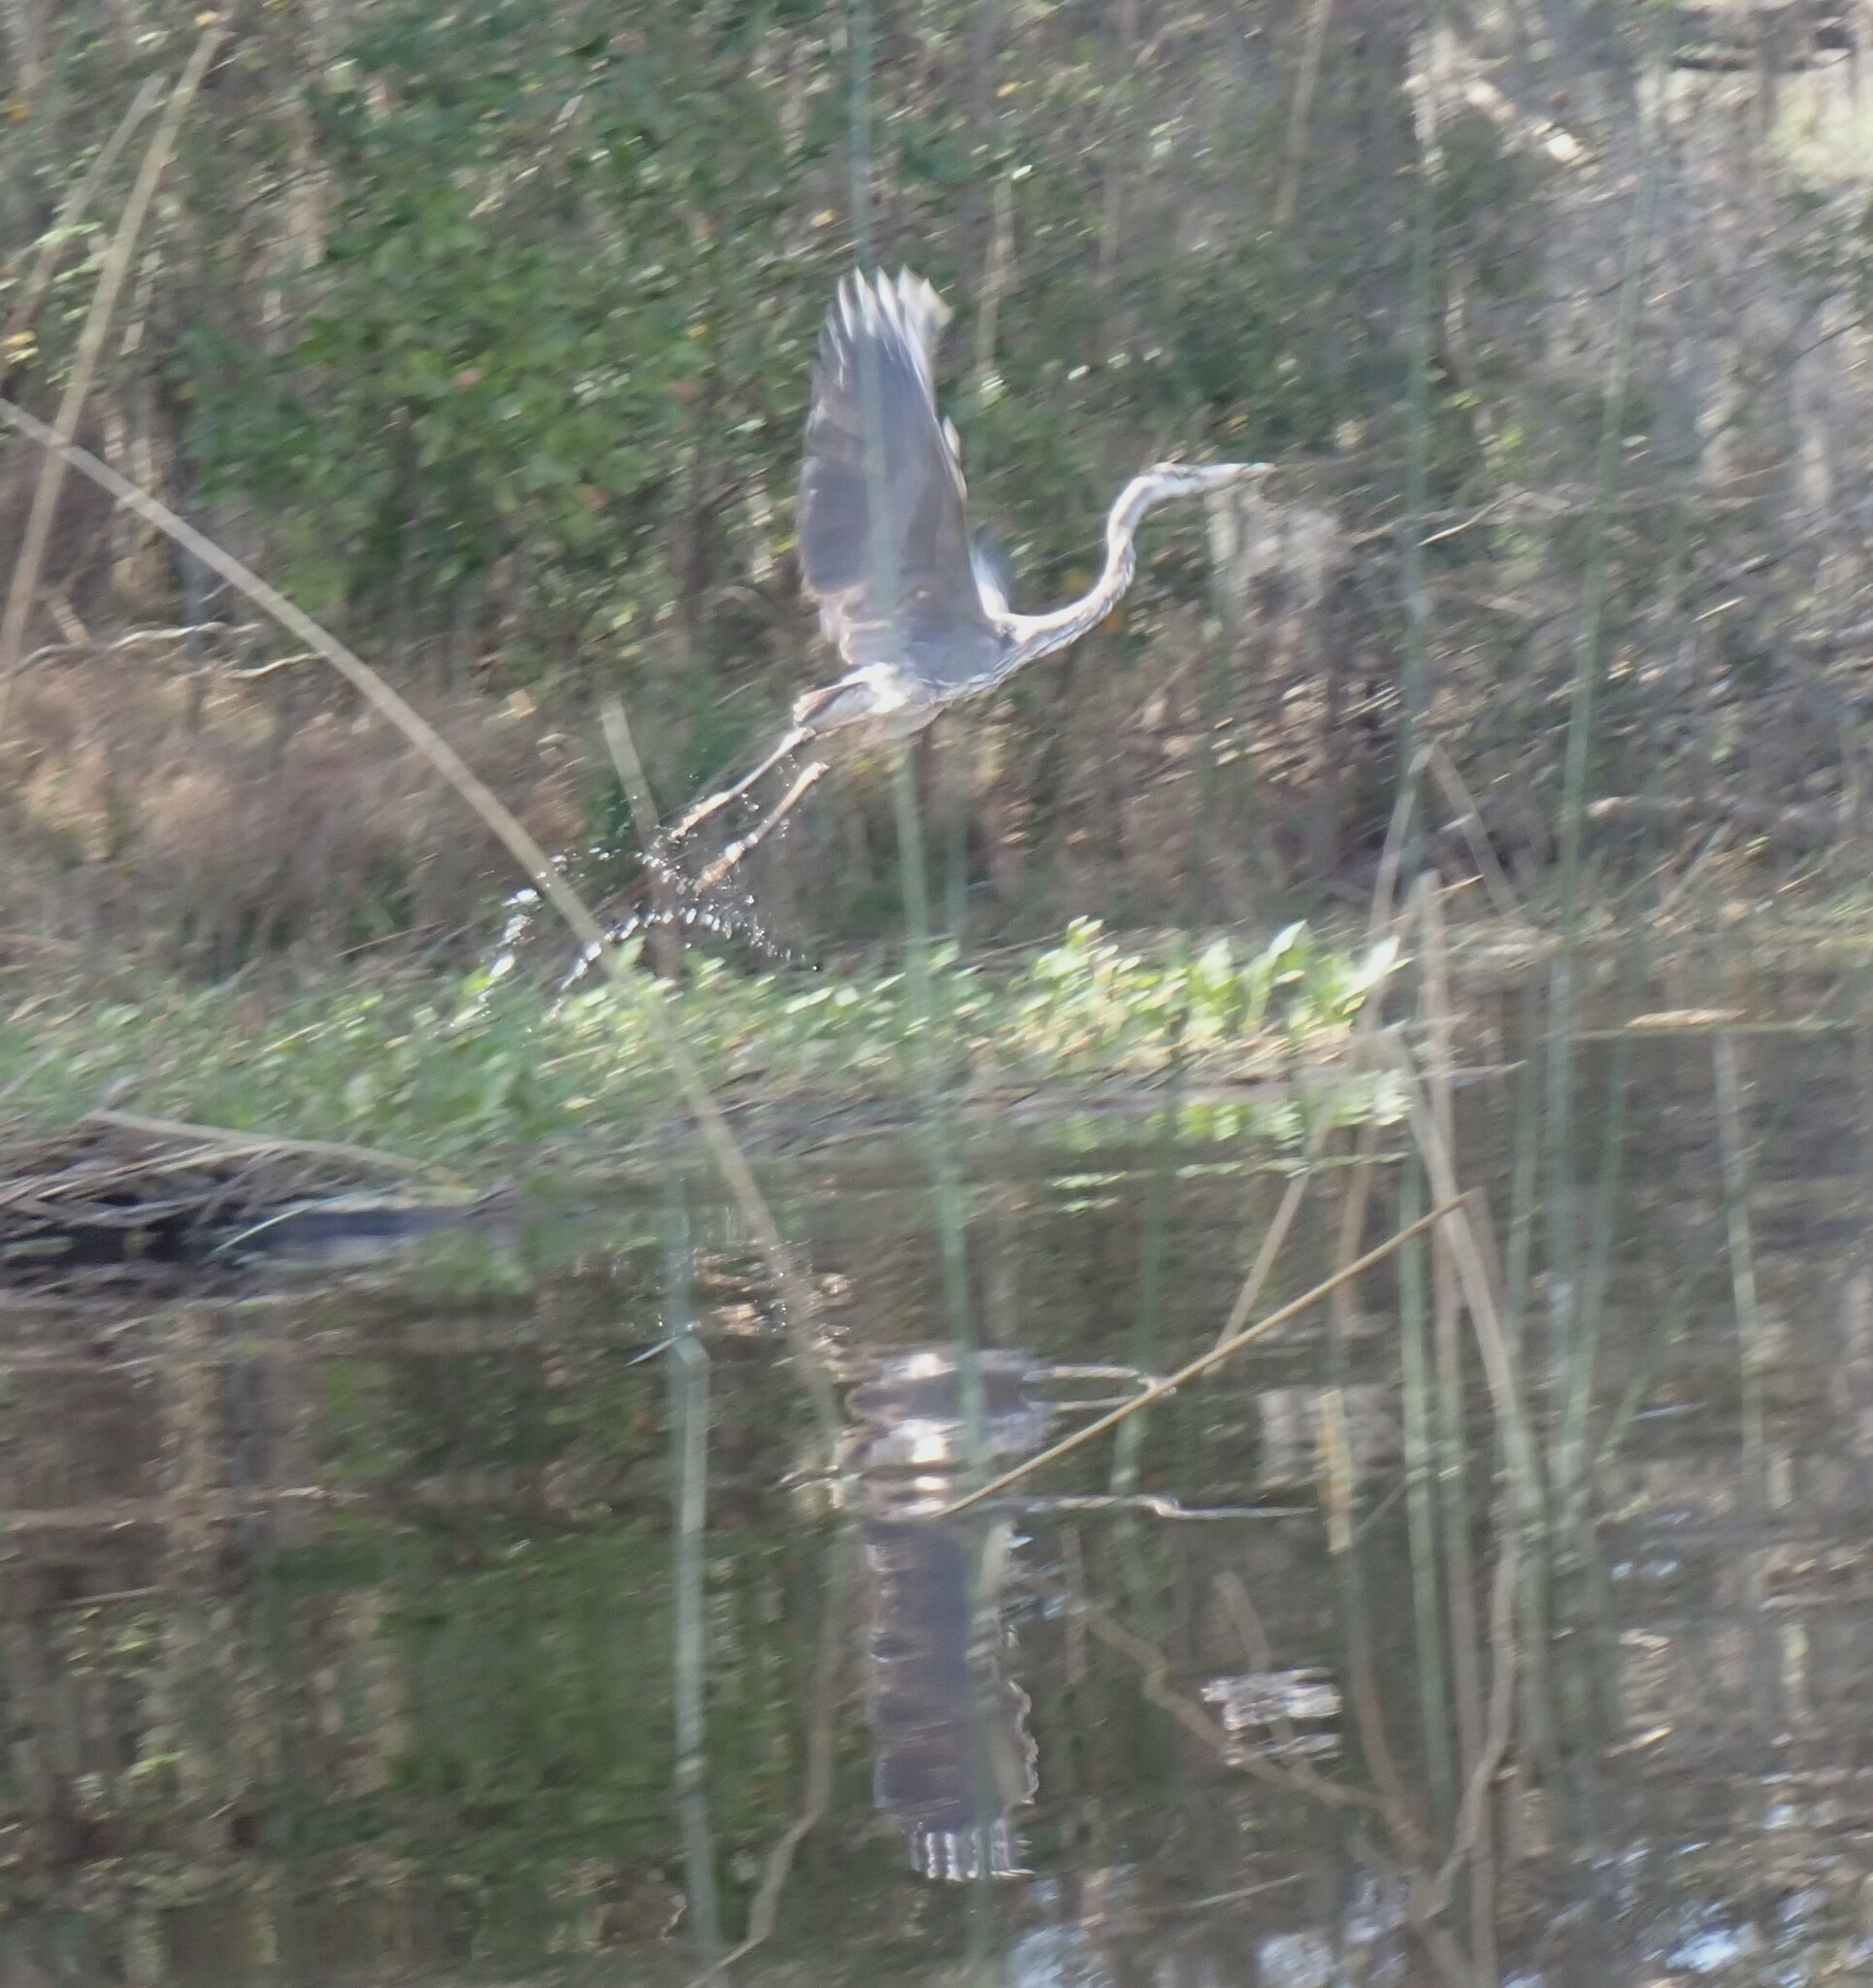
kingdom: Animalia
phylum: Chordata
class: Aves
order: Pelecaniformes
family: Ardeidae
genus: Ardea
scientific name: Ardea herodias
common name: Great blue heron
